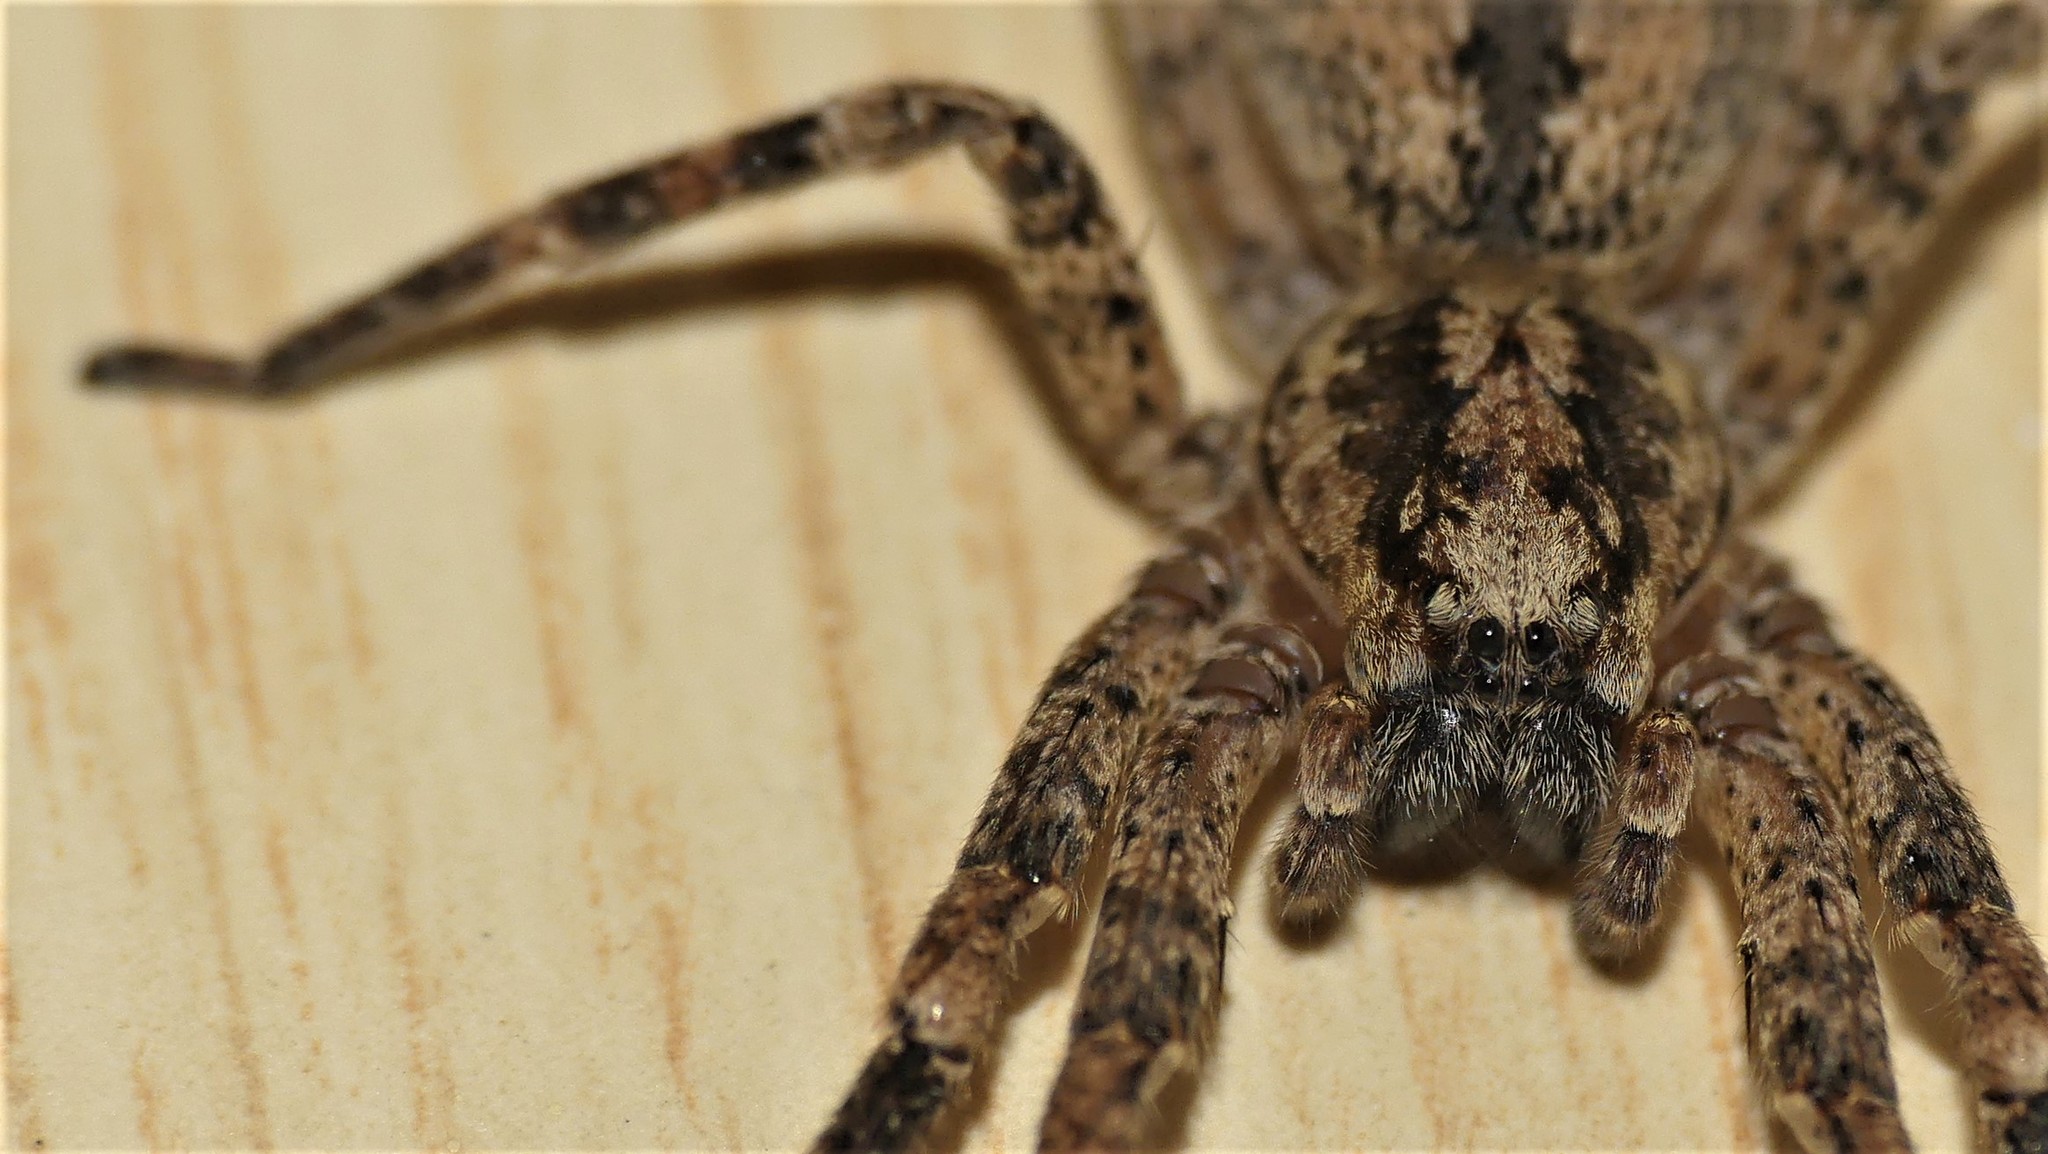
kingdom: Animalia
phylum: Arthropoda
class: Arachnida
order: Araneae
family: Zoropsidae
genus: Zoropsis
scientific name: Zoropsis spinimana
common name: Zoropsid spider
